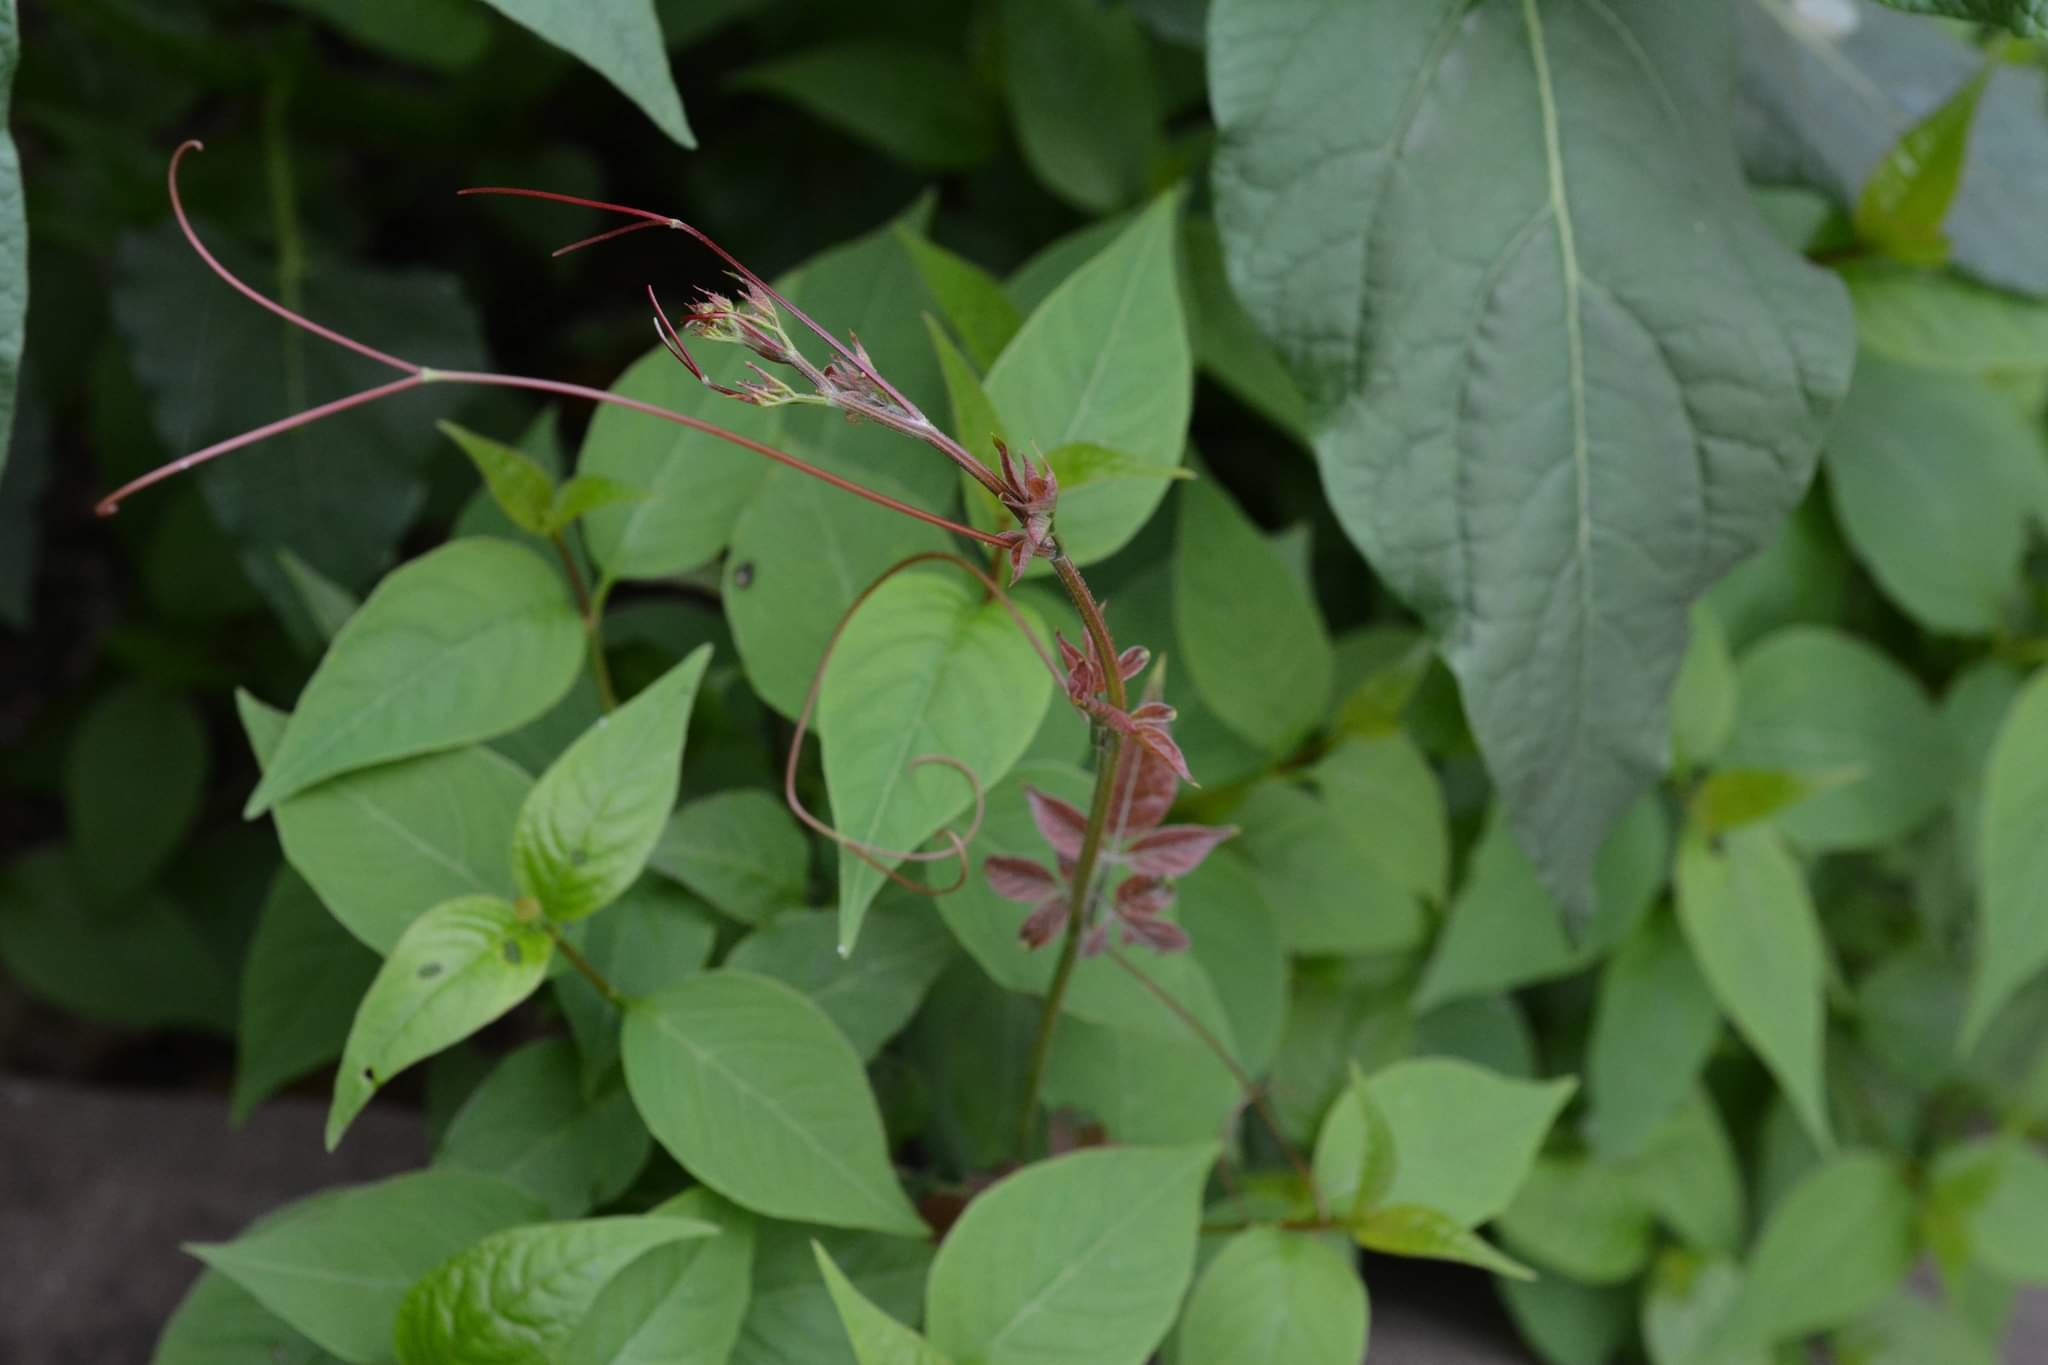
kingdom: Plantae
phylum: Tracheophyta
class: Magnoliopsida
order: Sapindales
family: Anacardiaceae
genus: Toxicodendron
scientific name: Toxicodendron radicans
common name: Poison ivy
